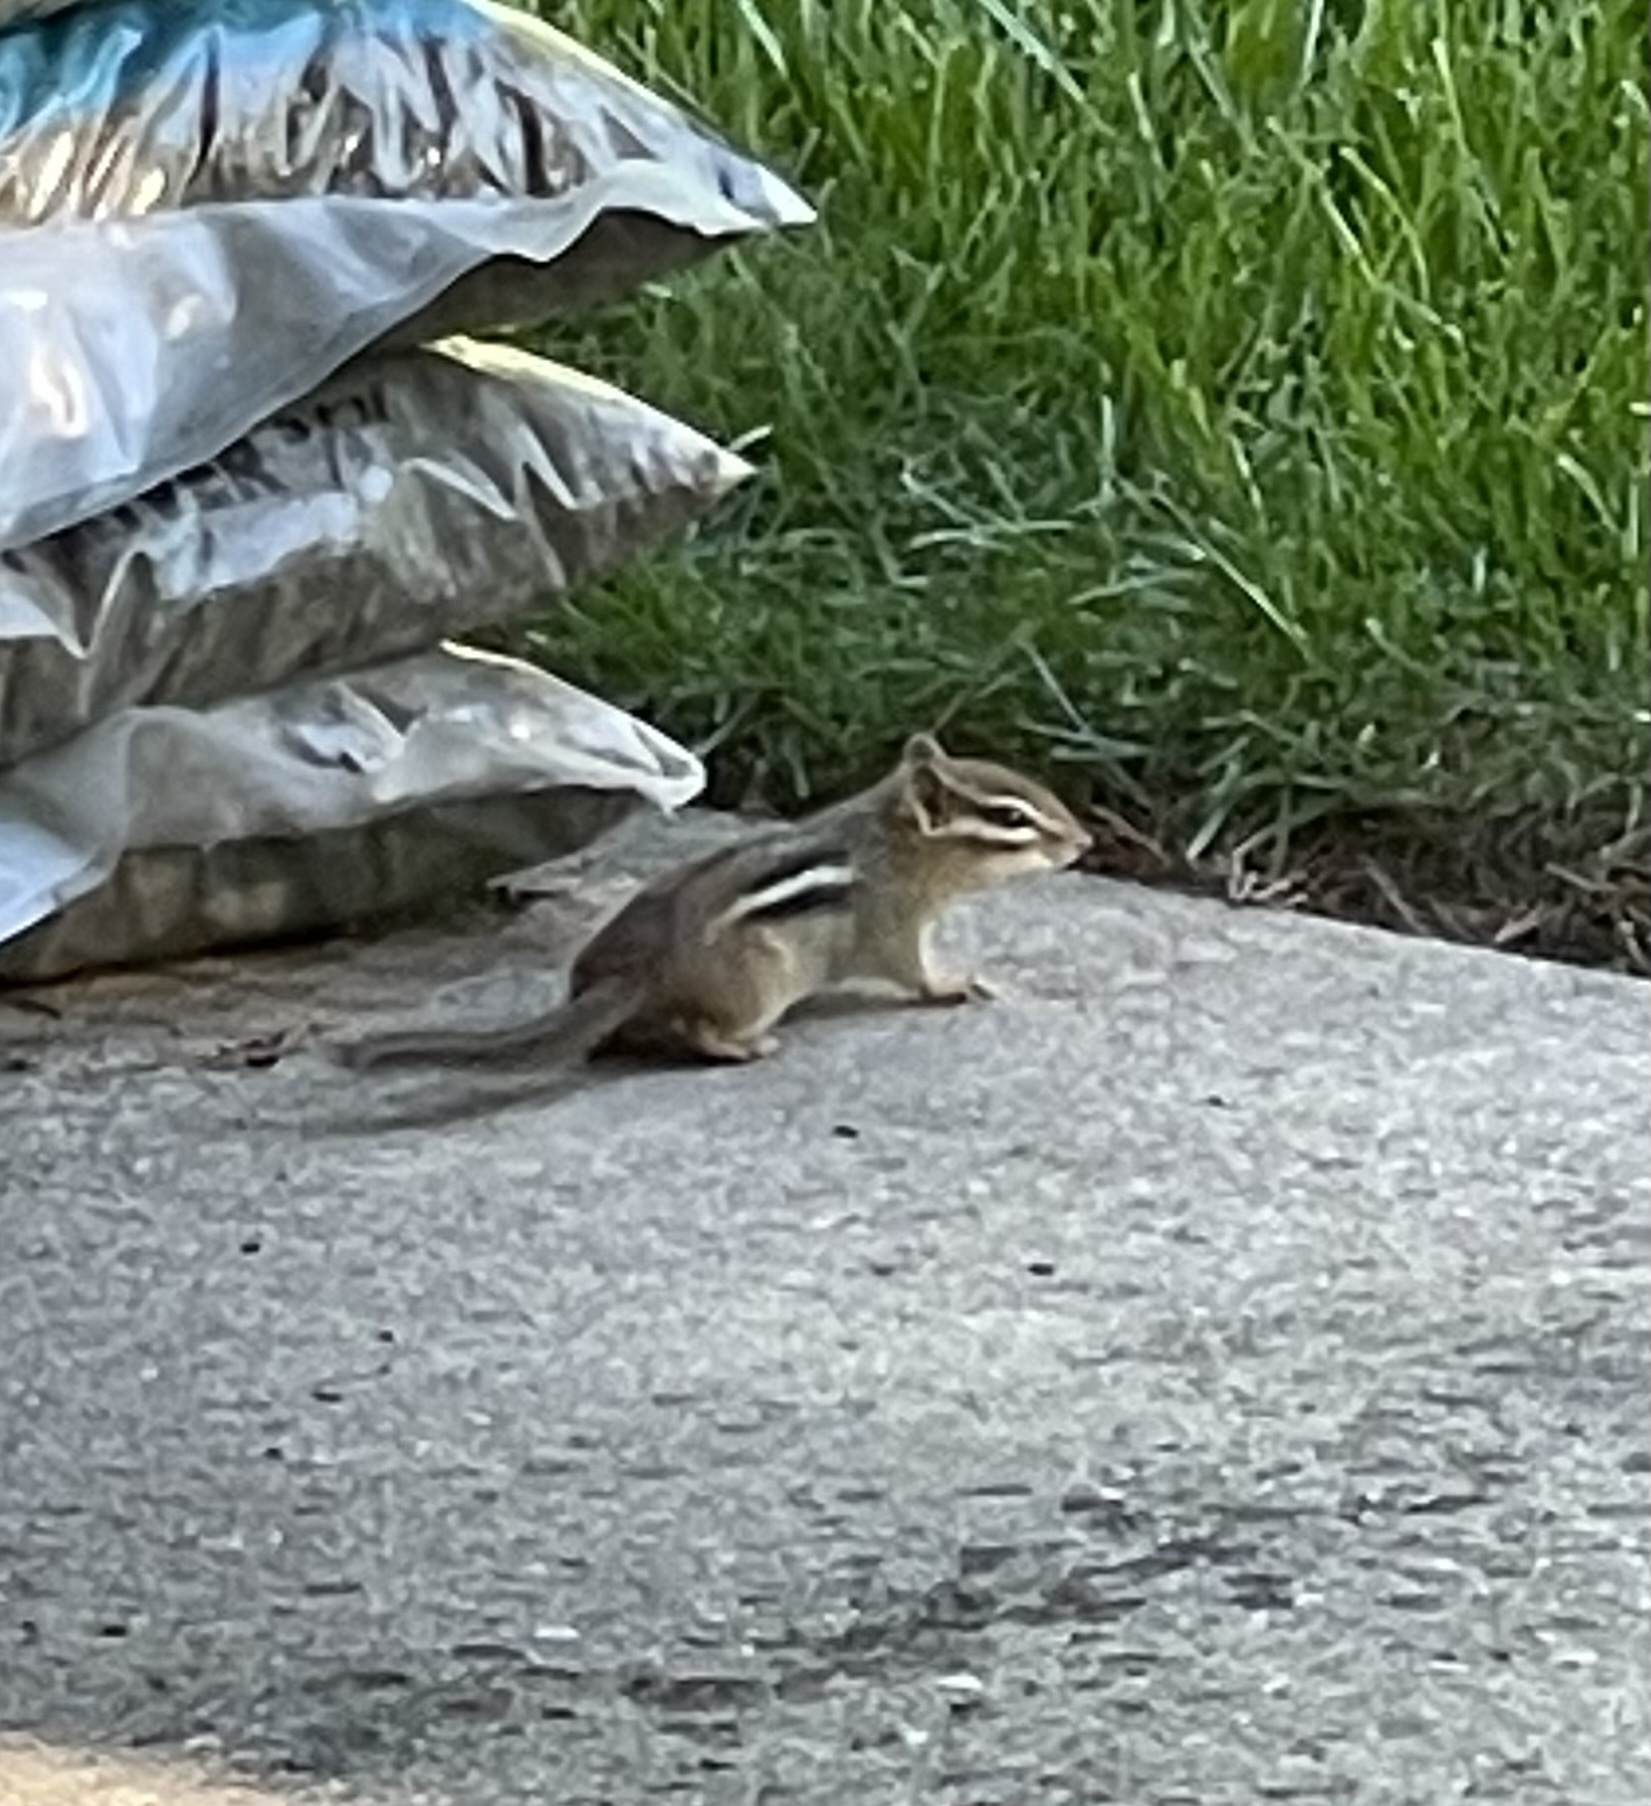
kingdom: Animalia
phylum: Chordata
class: Mammalia
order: Rodentia
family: Sciuridae
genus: Tamias
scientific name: Tamias striatus
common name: Eastern chipmunk
